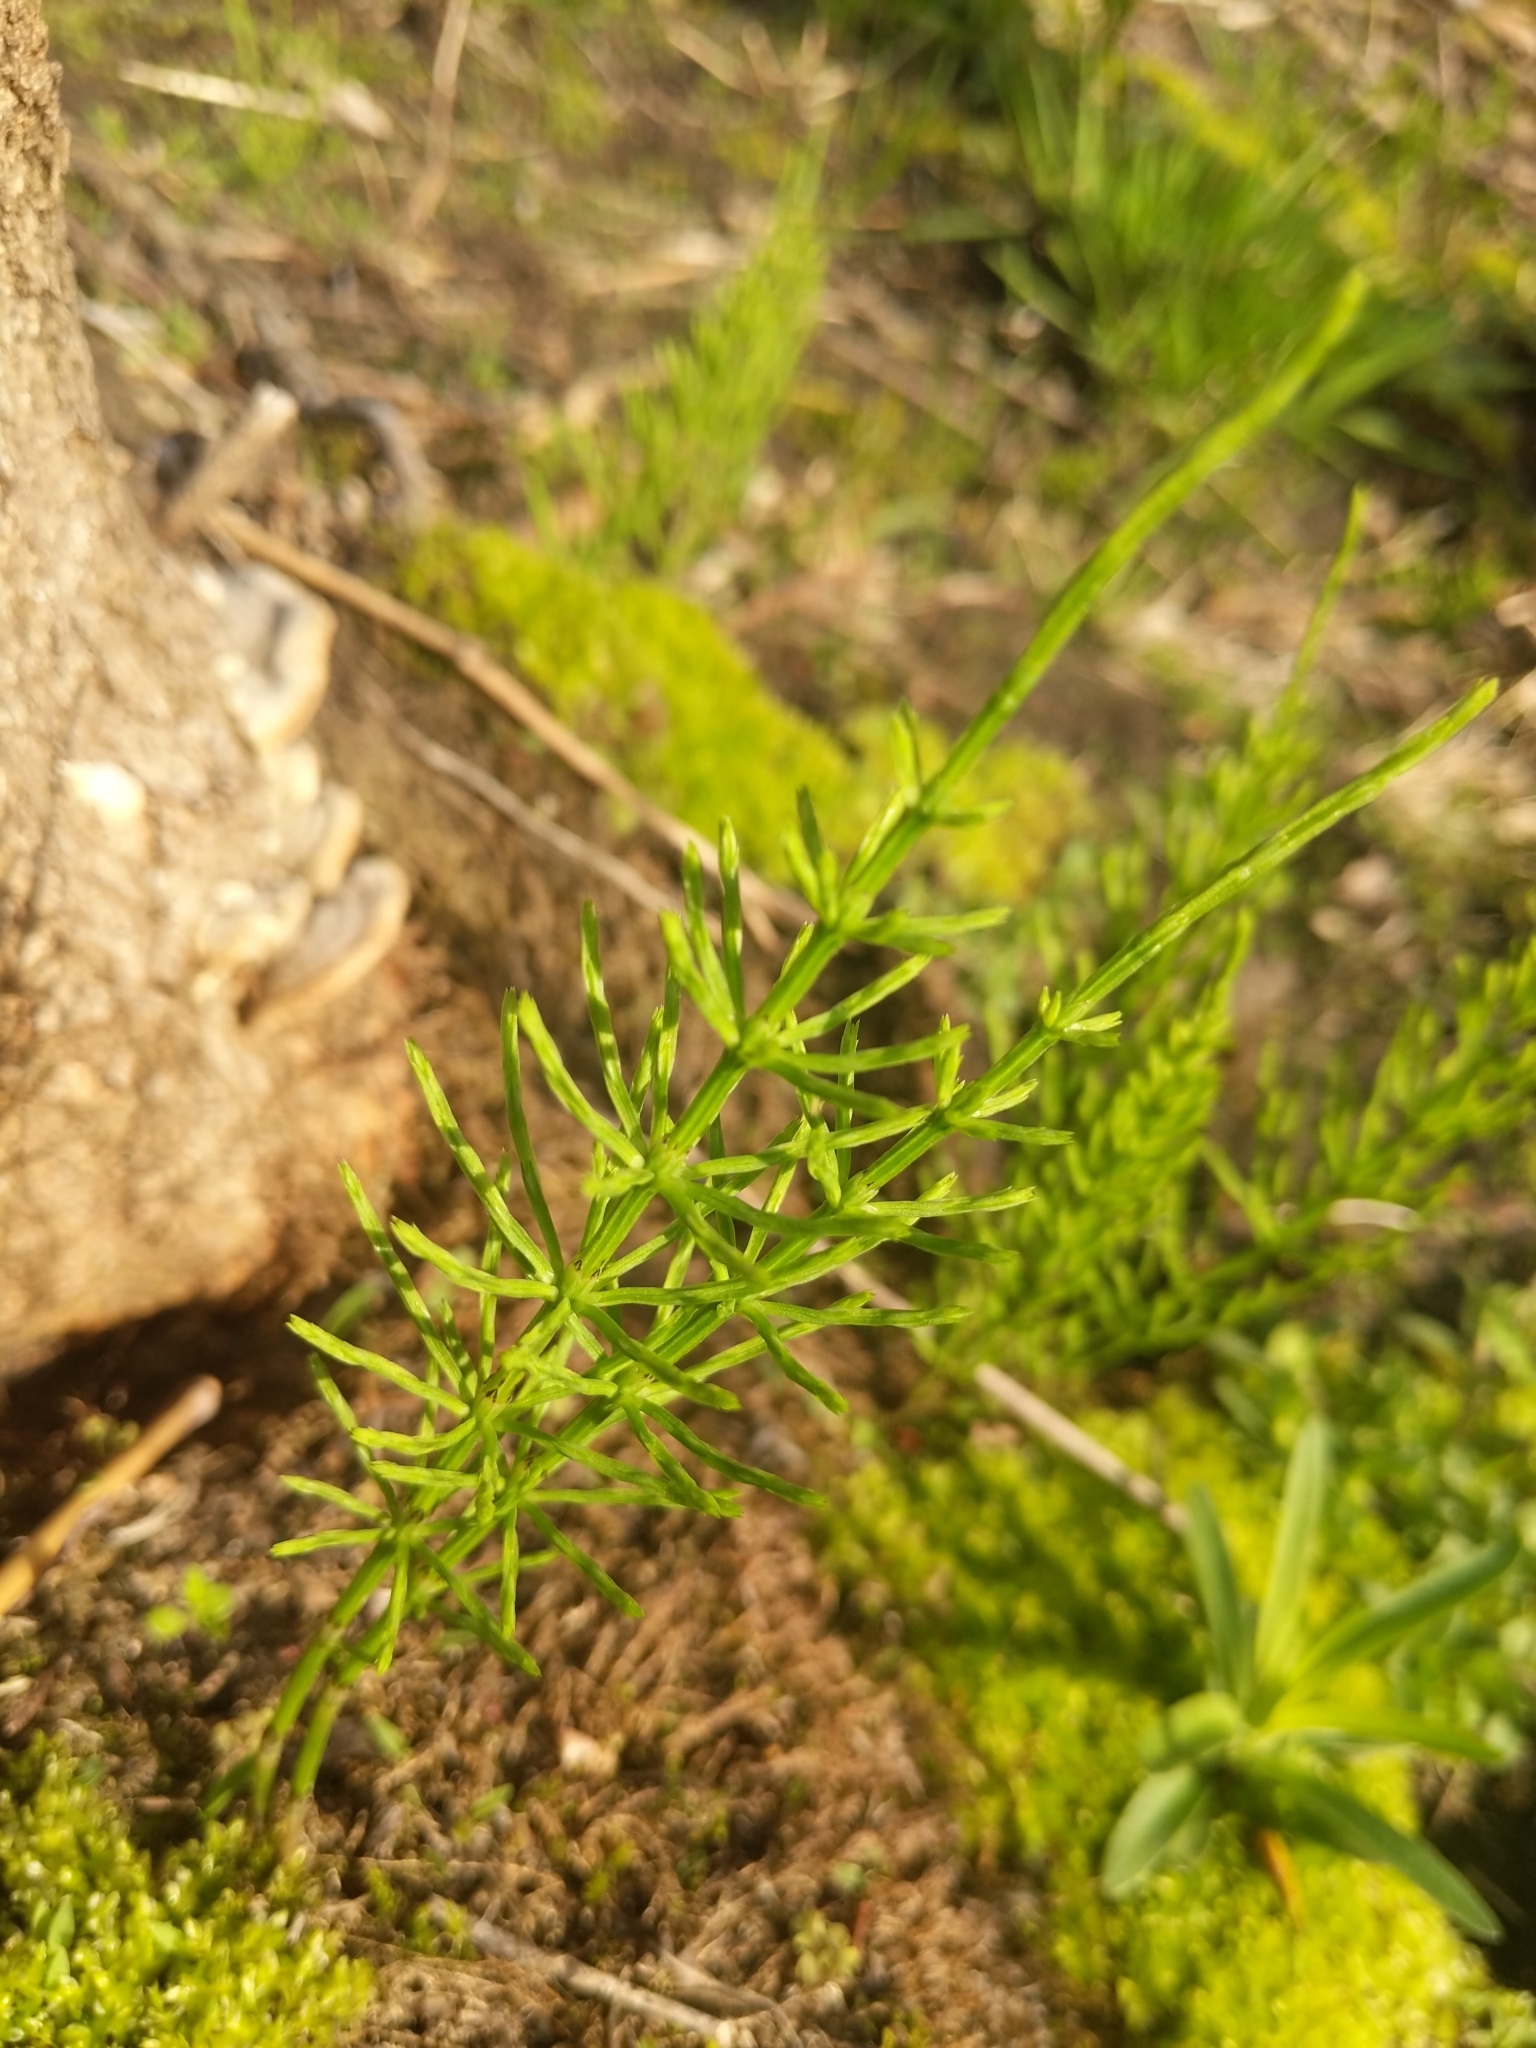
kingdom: Plantae
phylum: Tracheophyta
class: Polypodiopsida
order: Equisetales
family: Equisetaceae
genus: Equisetum
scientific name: Equisetum arvense
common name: Field horsetail
